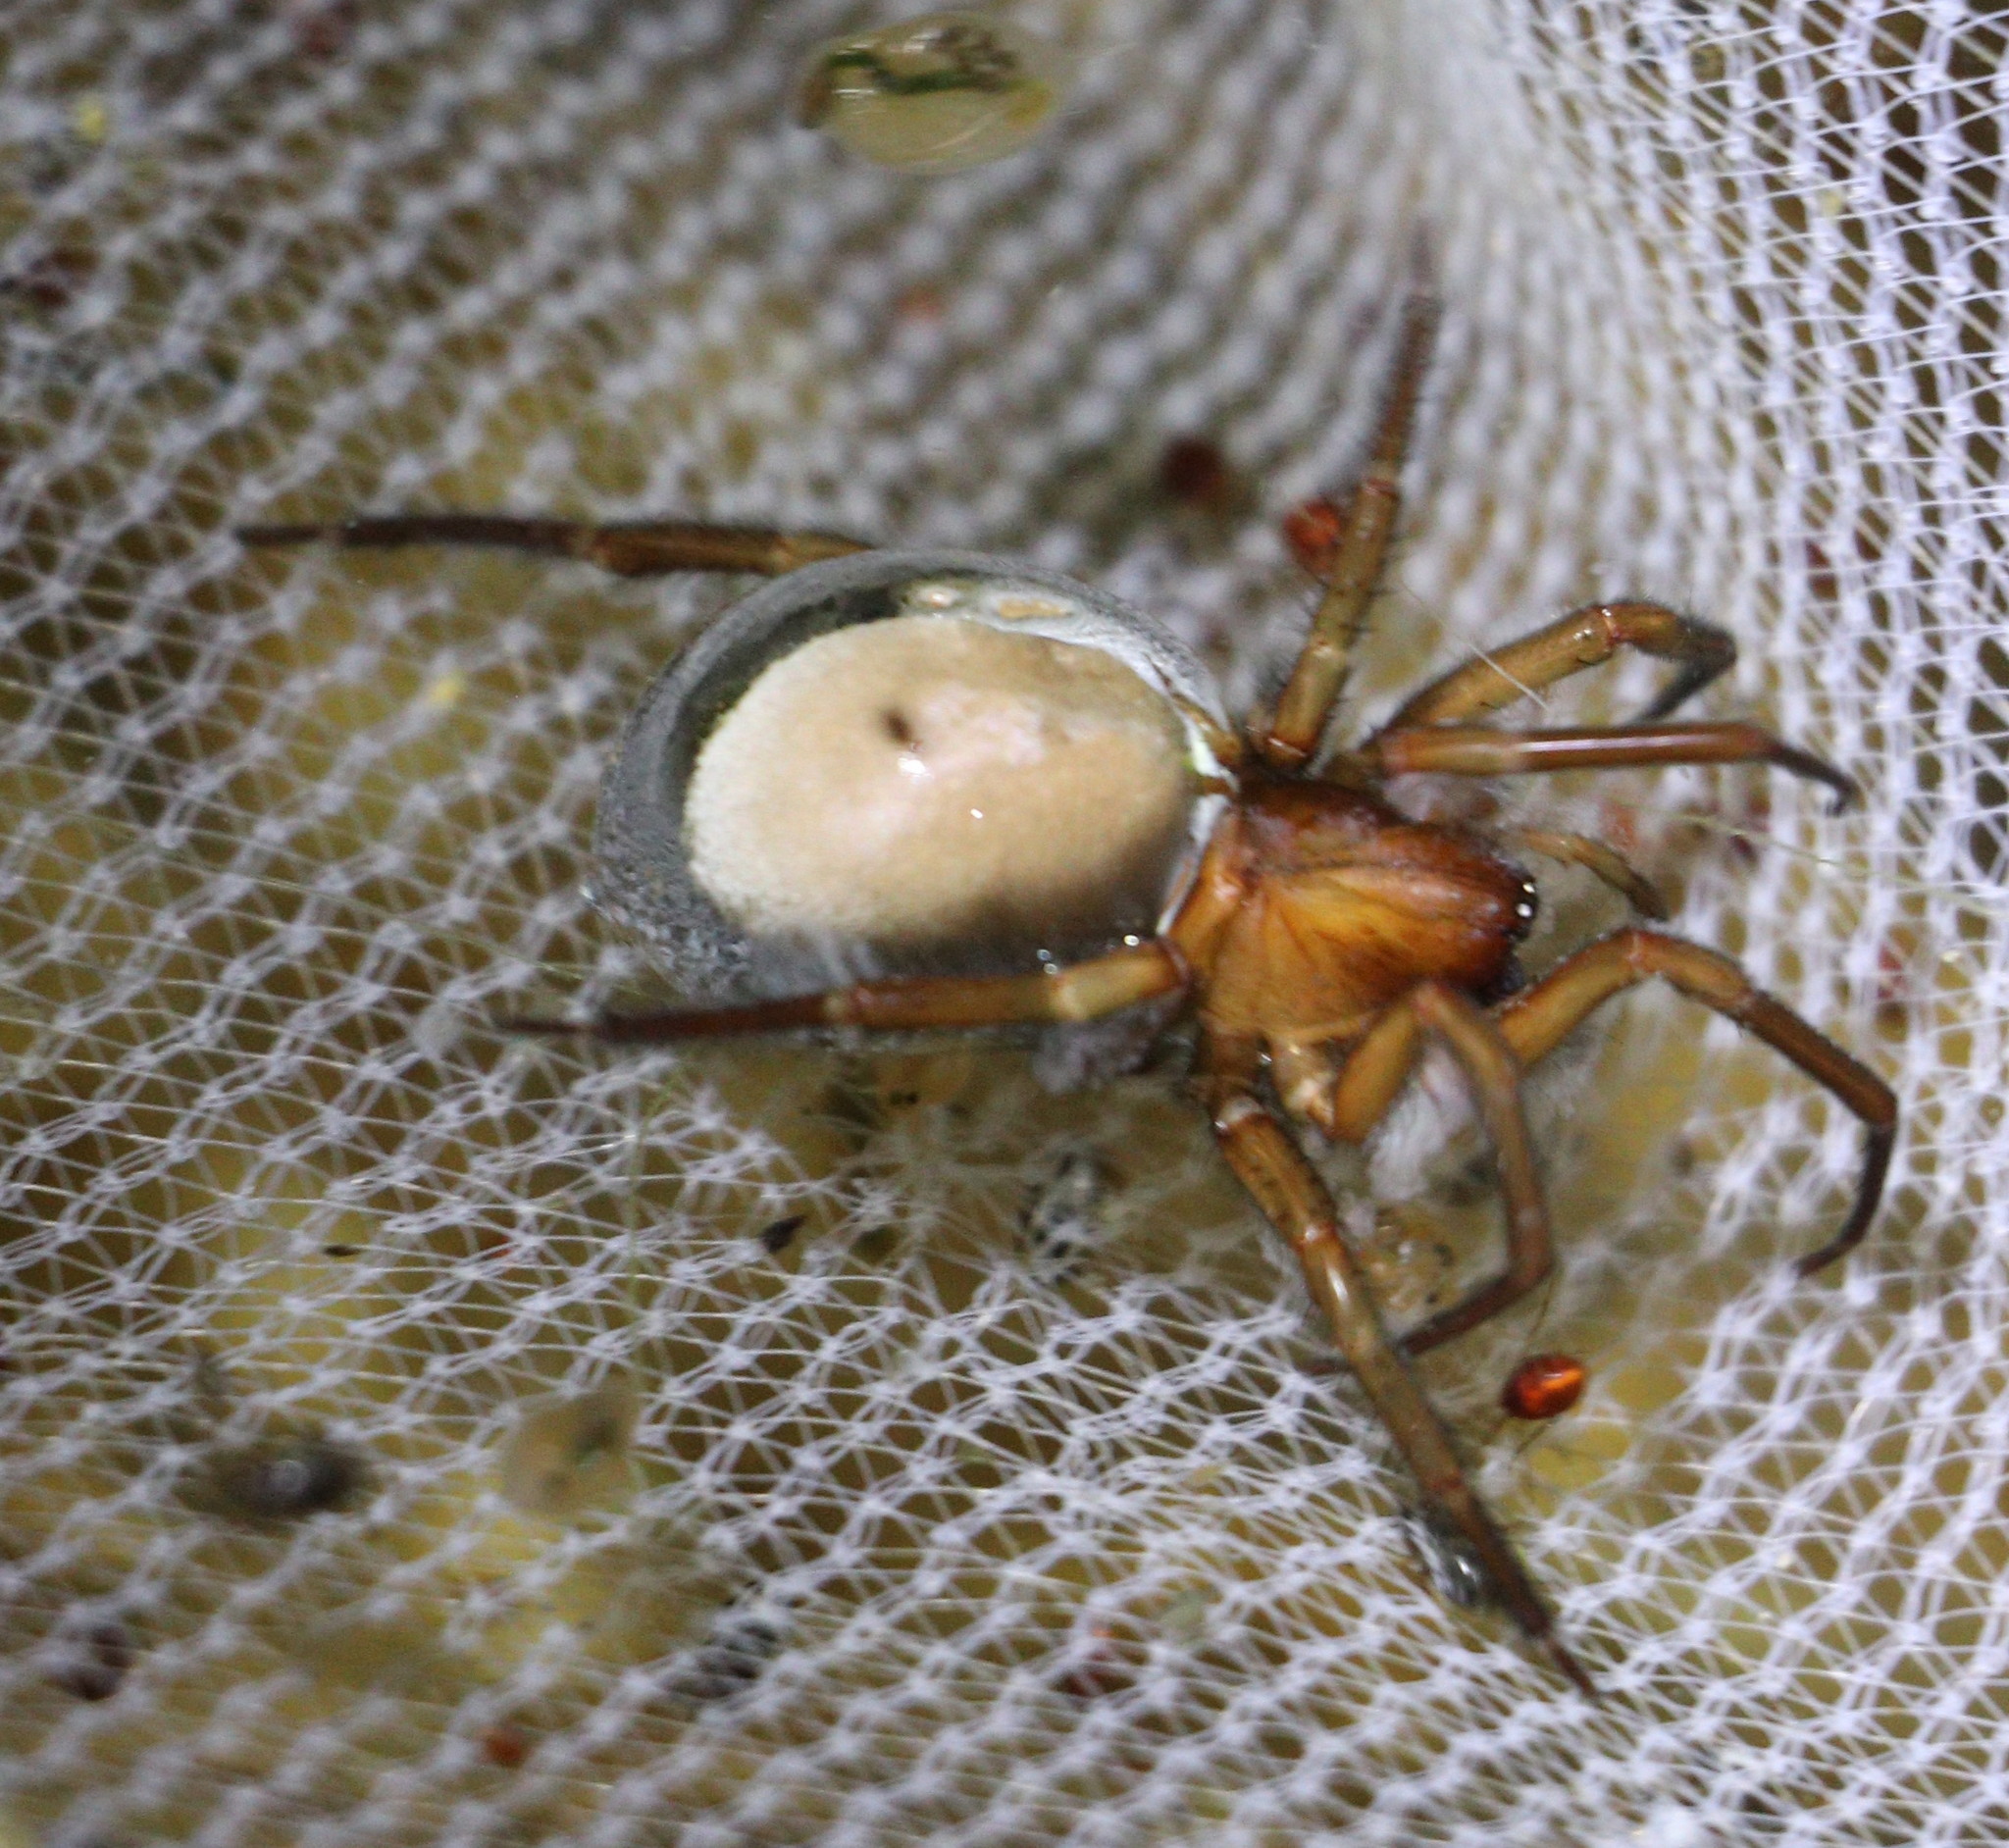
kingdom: Animalia
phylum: Arthropoda
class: Arachnida
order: Araneae
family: Dictynidae
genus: Argyroneta
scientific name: Argyroneta aquatica
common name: Water spider
